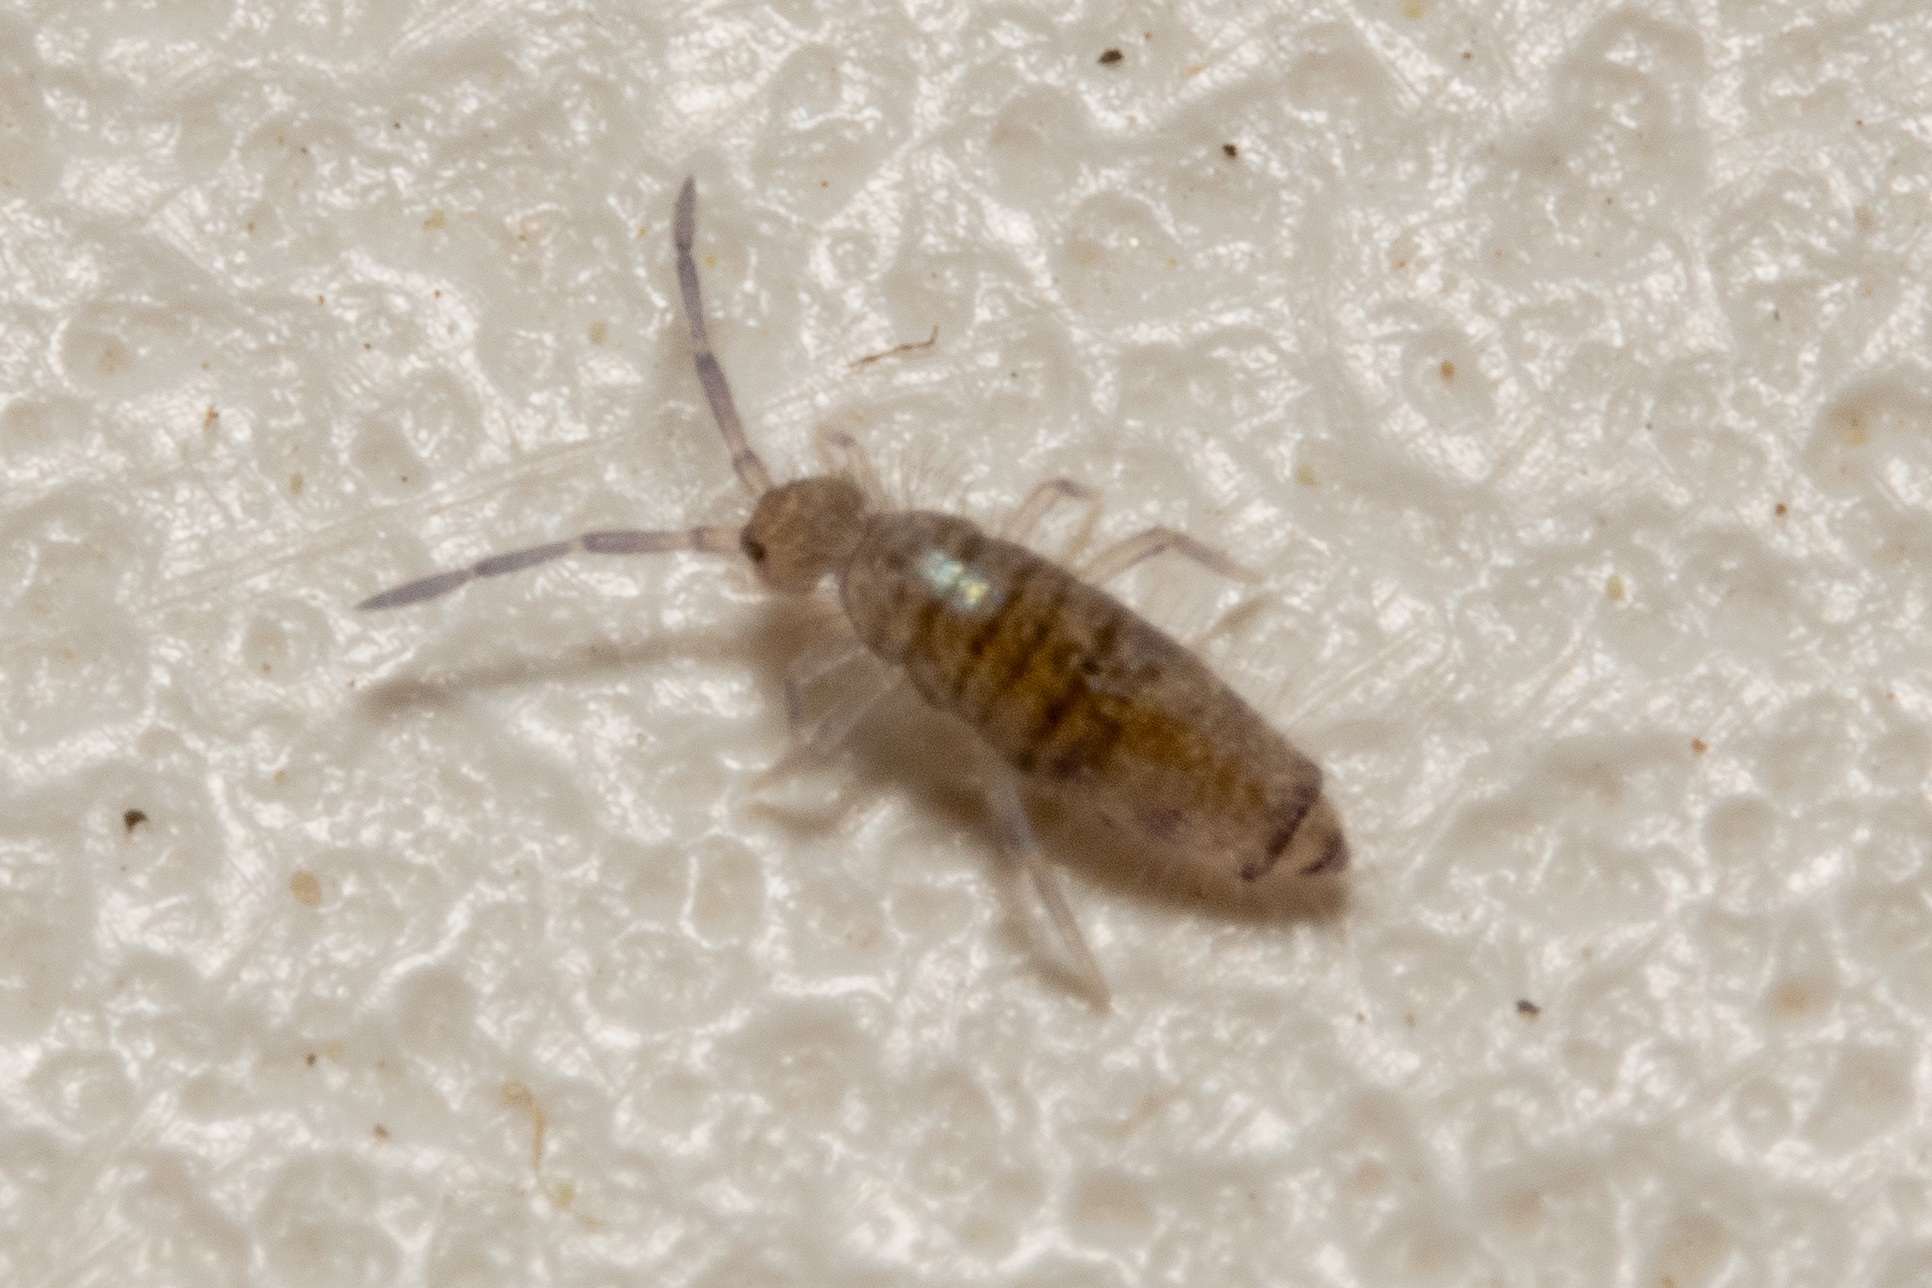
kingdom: Animalia
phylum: Arthropoda
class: Collembola
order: Entomobryomorpha
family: Entomobryidae
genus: Willowsia
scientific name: Willowsia nigromaculata
